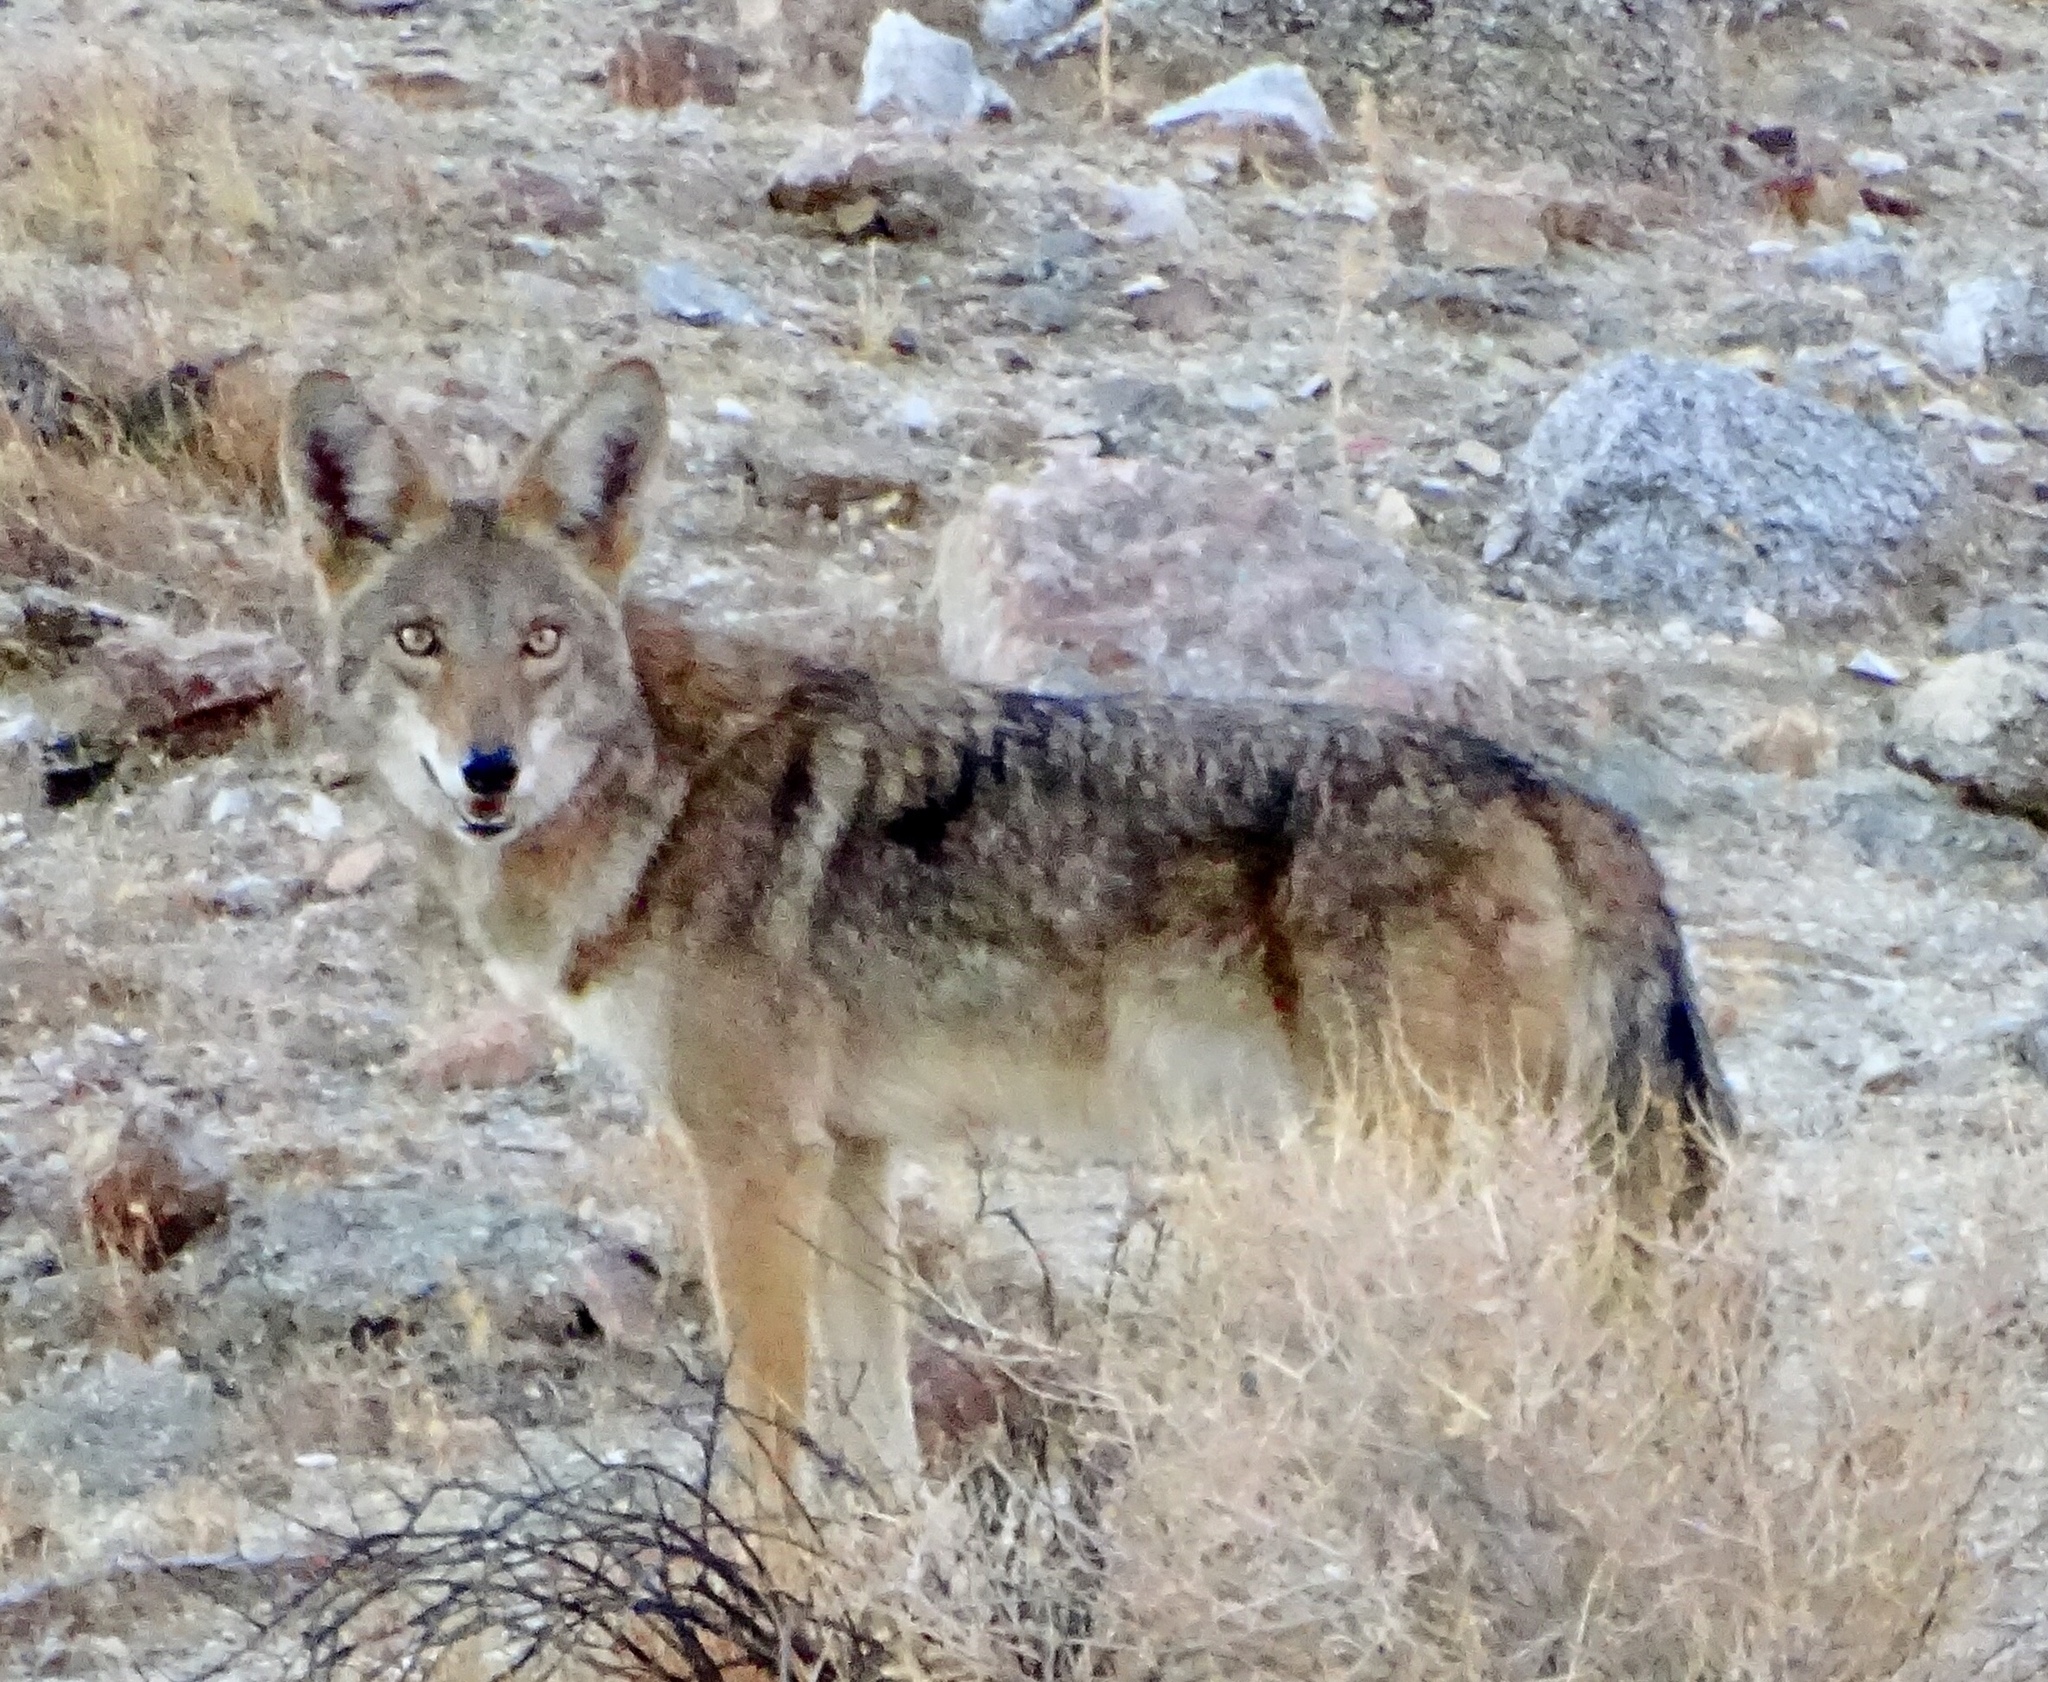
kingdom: Animalia
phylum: Chordata
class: Mammalia
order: Carnivora
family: Canidae
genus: Canis
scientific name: Canis latrans
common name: Coyote
